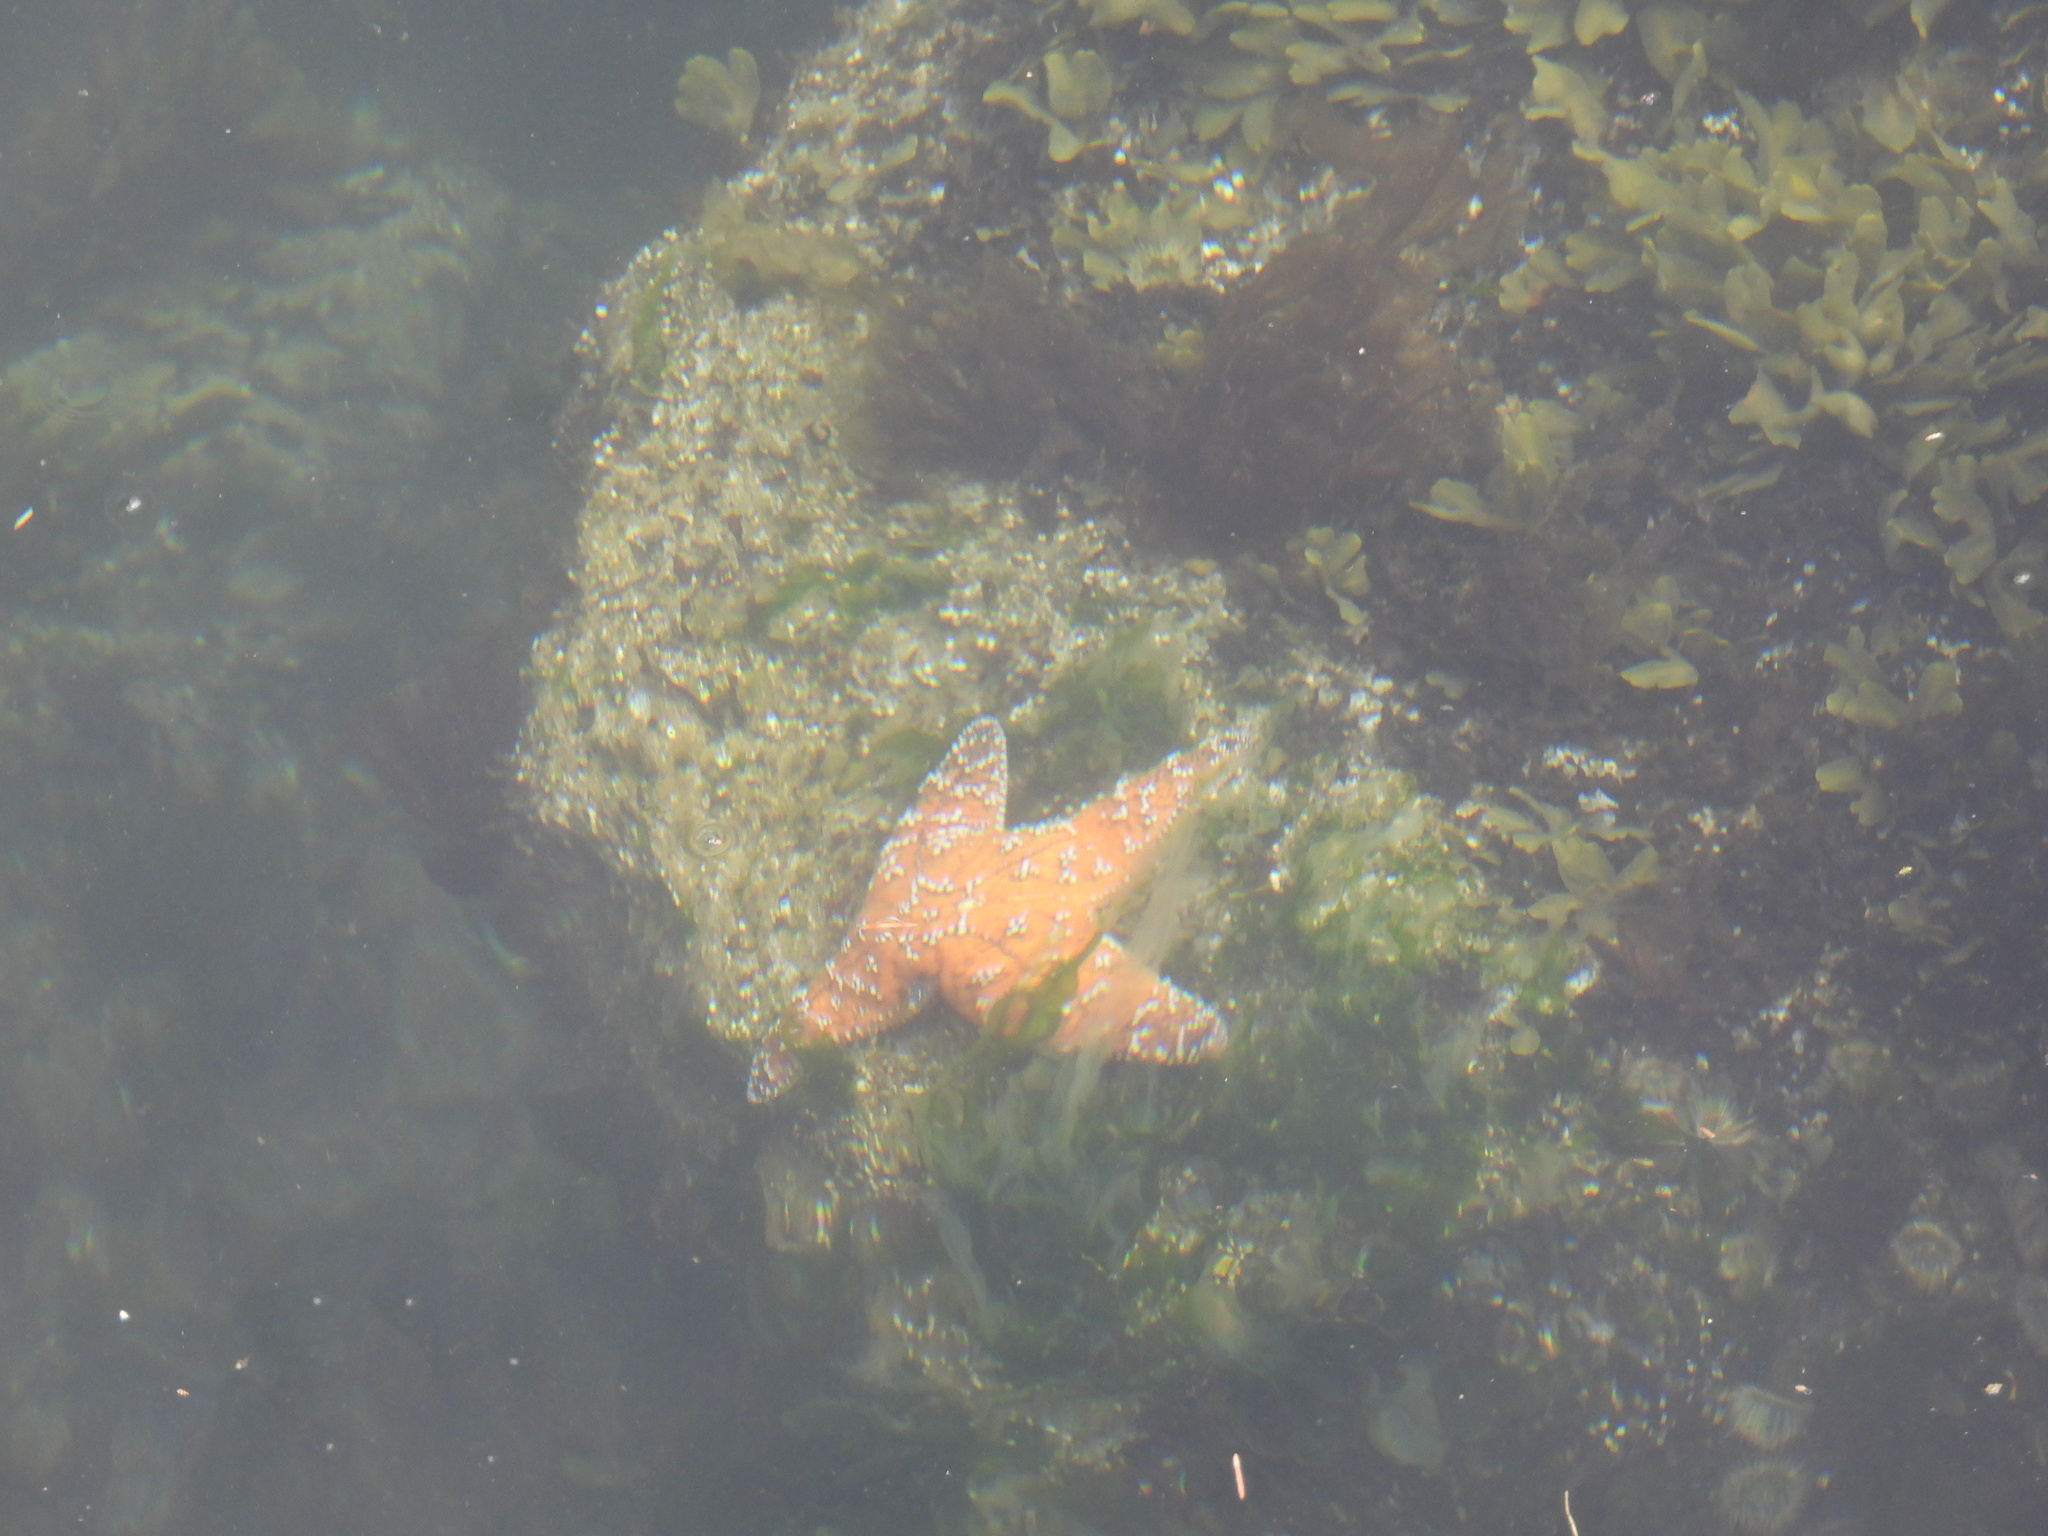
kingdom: Animalia
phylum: Echinodermata
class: Asteroidea
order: Forcipulatida
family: Asteriidae
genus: Pisaster
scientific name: Pisaster ochraceus
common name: Ochre stars
